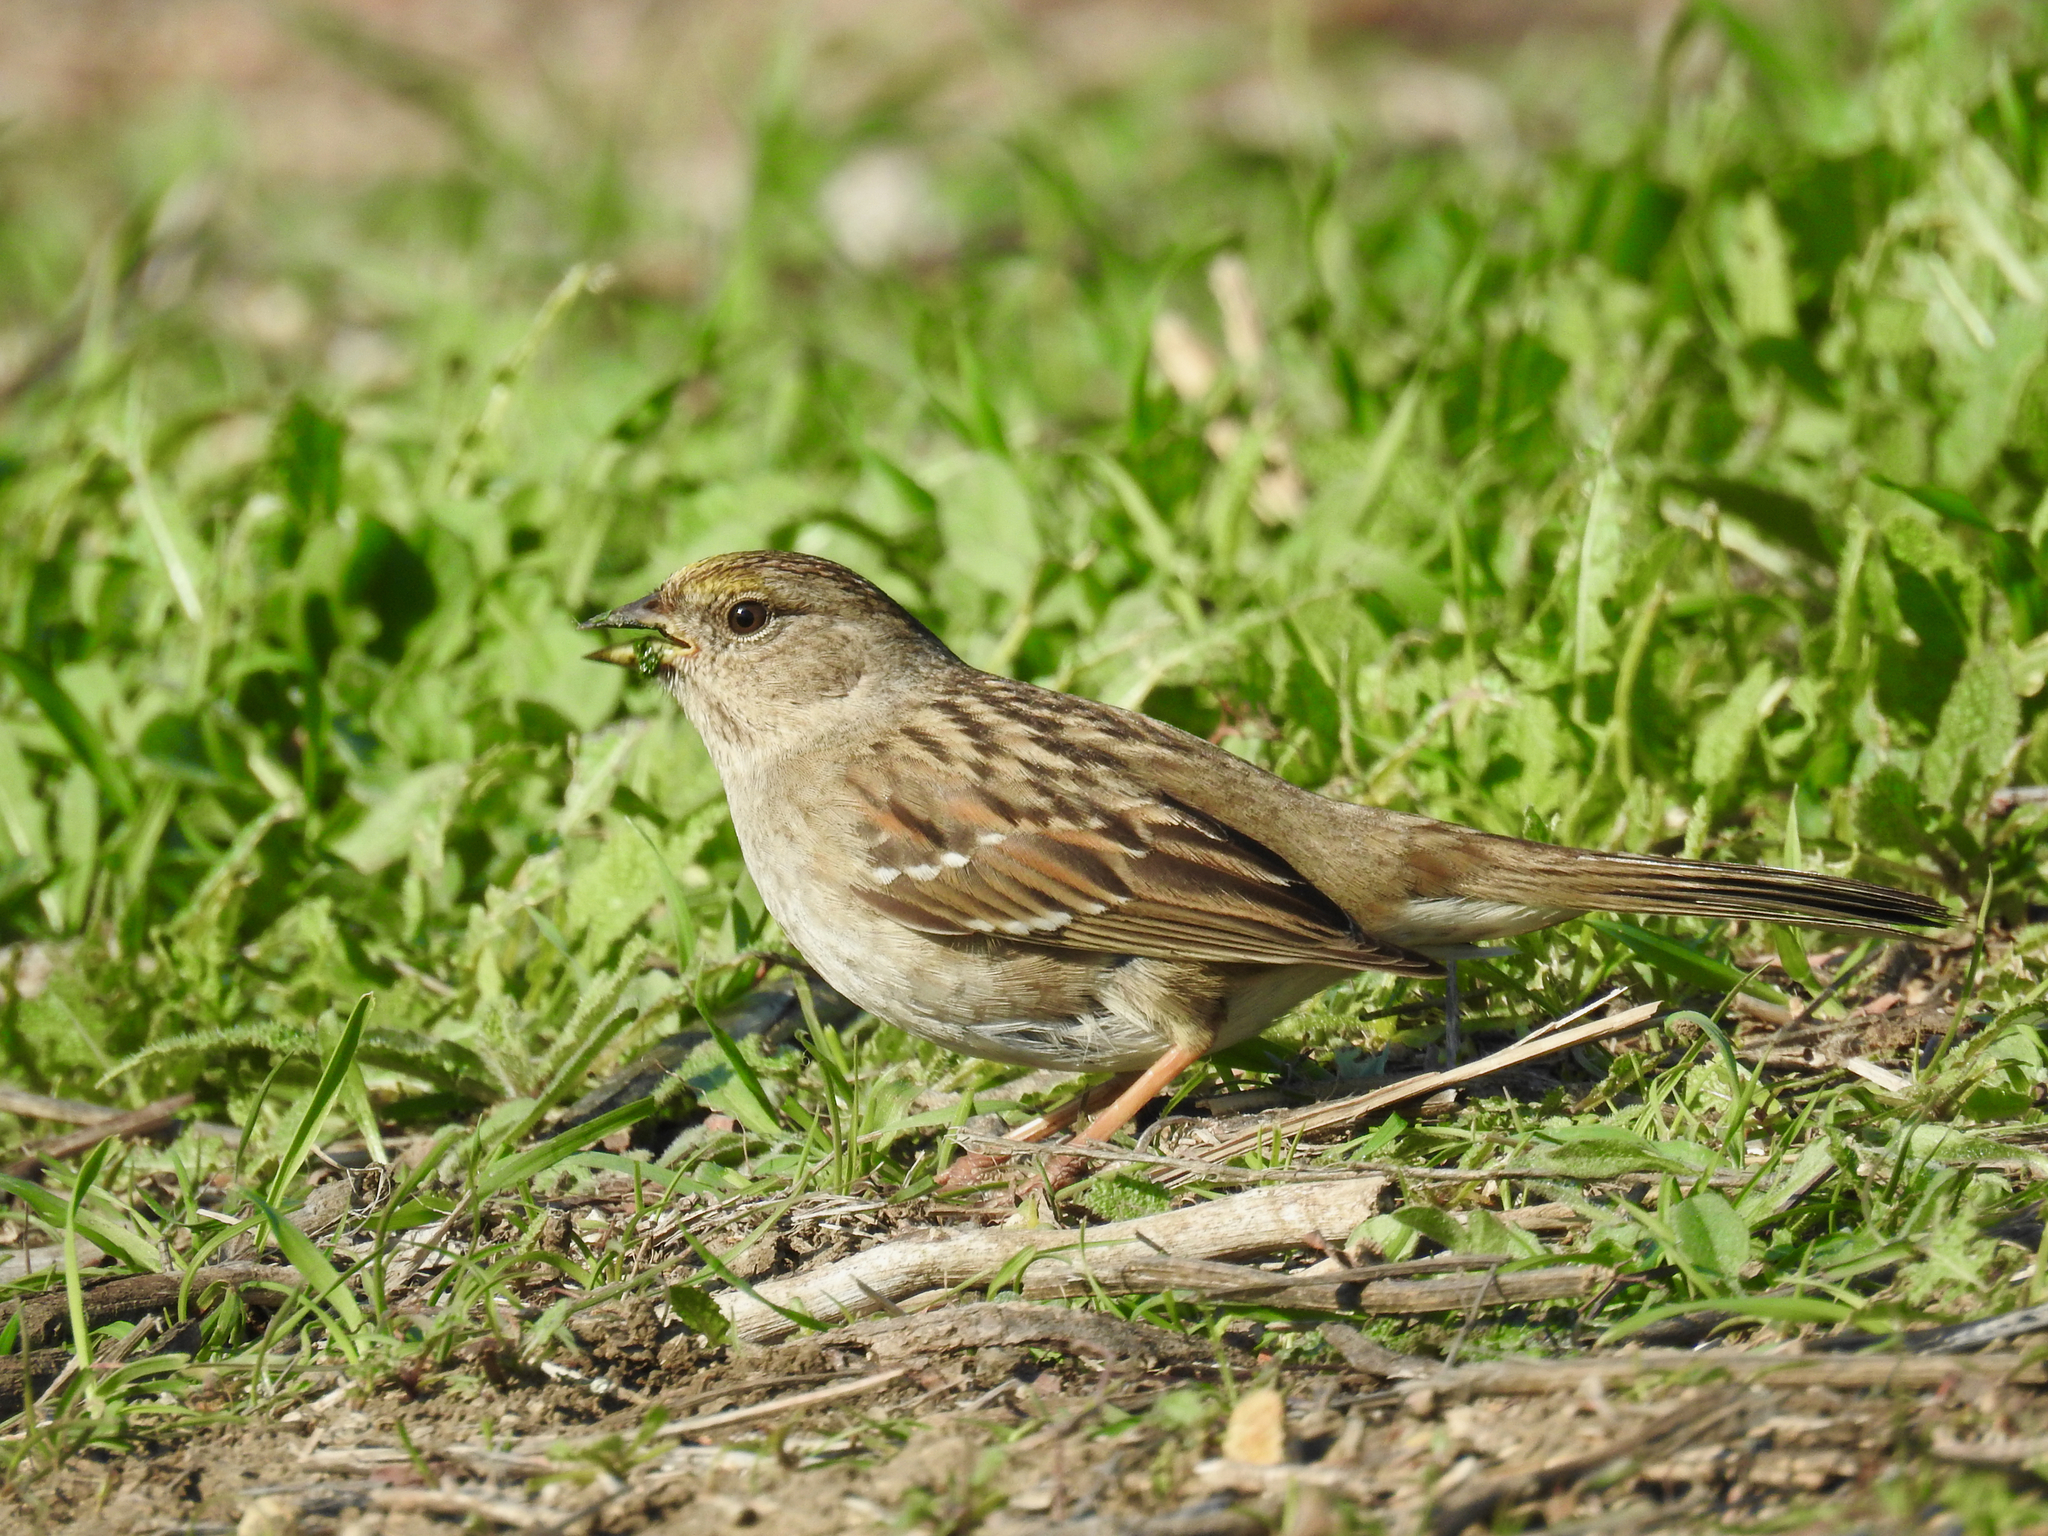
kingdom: Animalia
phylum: Chordata
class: Aves
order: Passeriformes
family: Passerellidae
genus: Zonotrichia
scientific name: Zonotrichia atricapilla
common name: Golden-crowned sparrow
